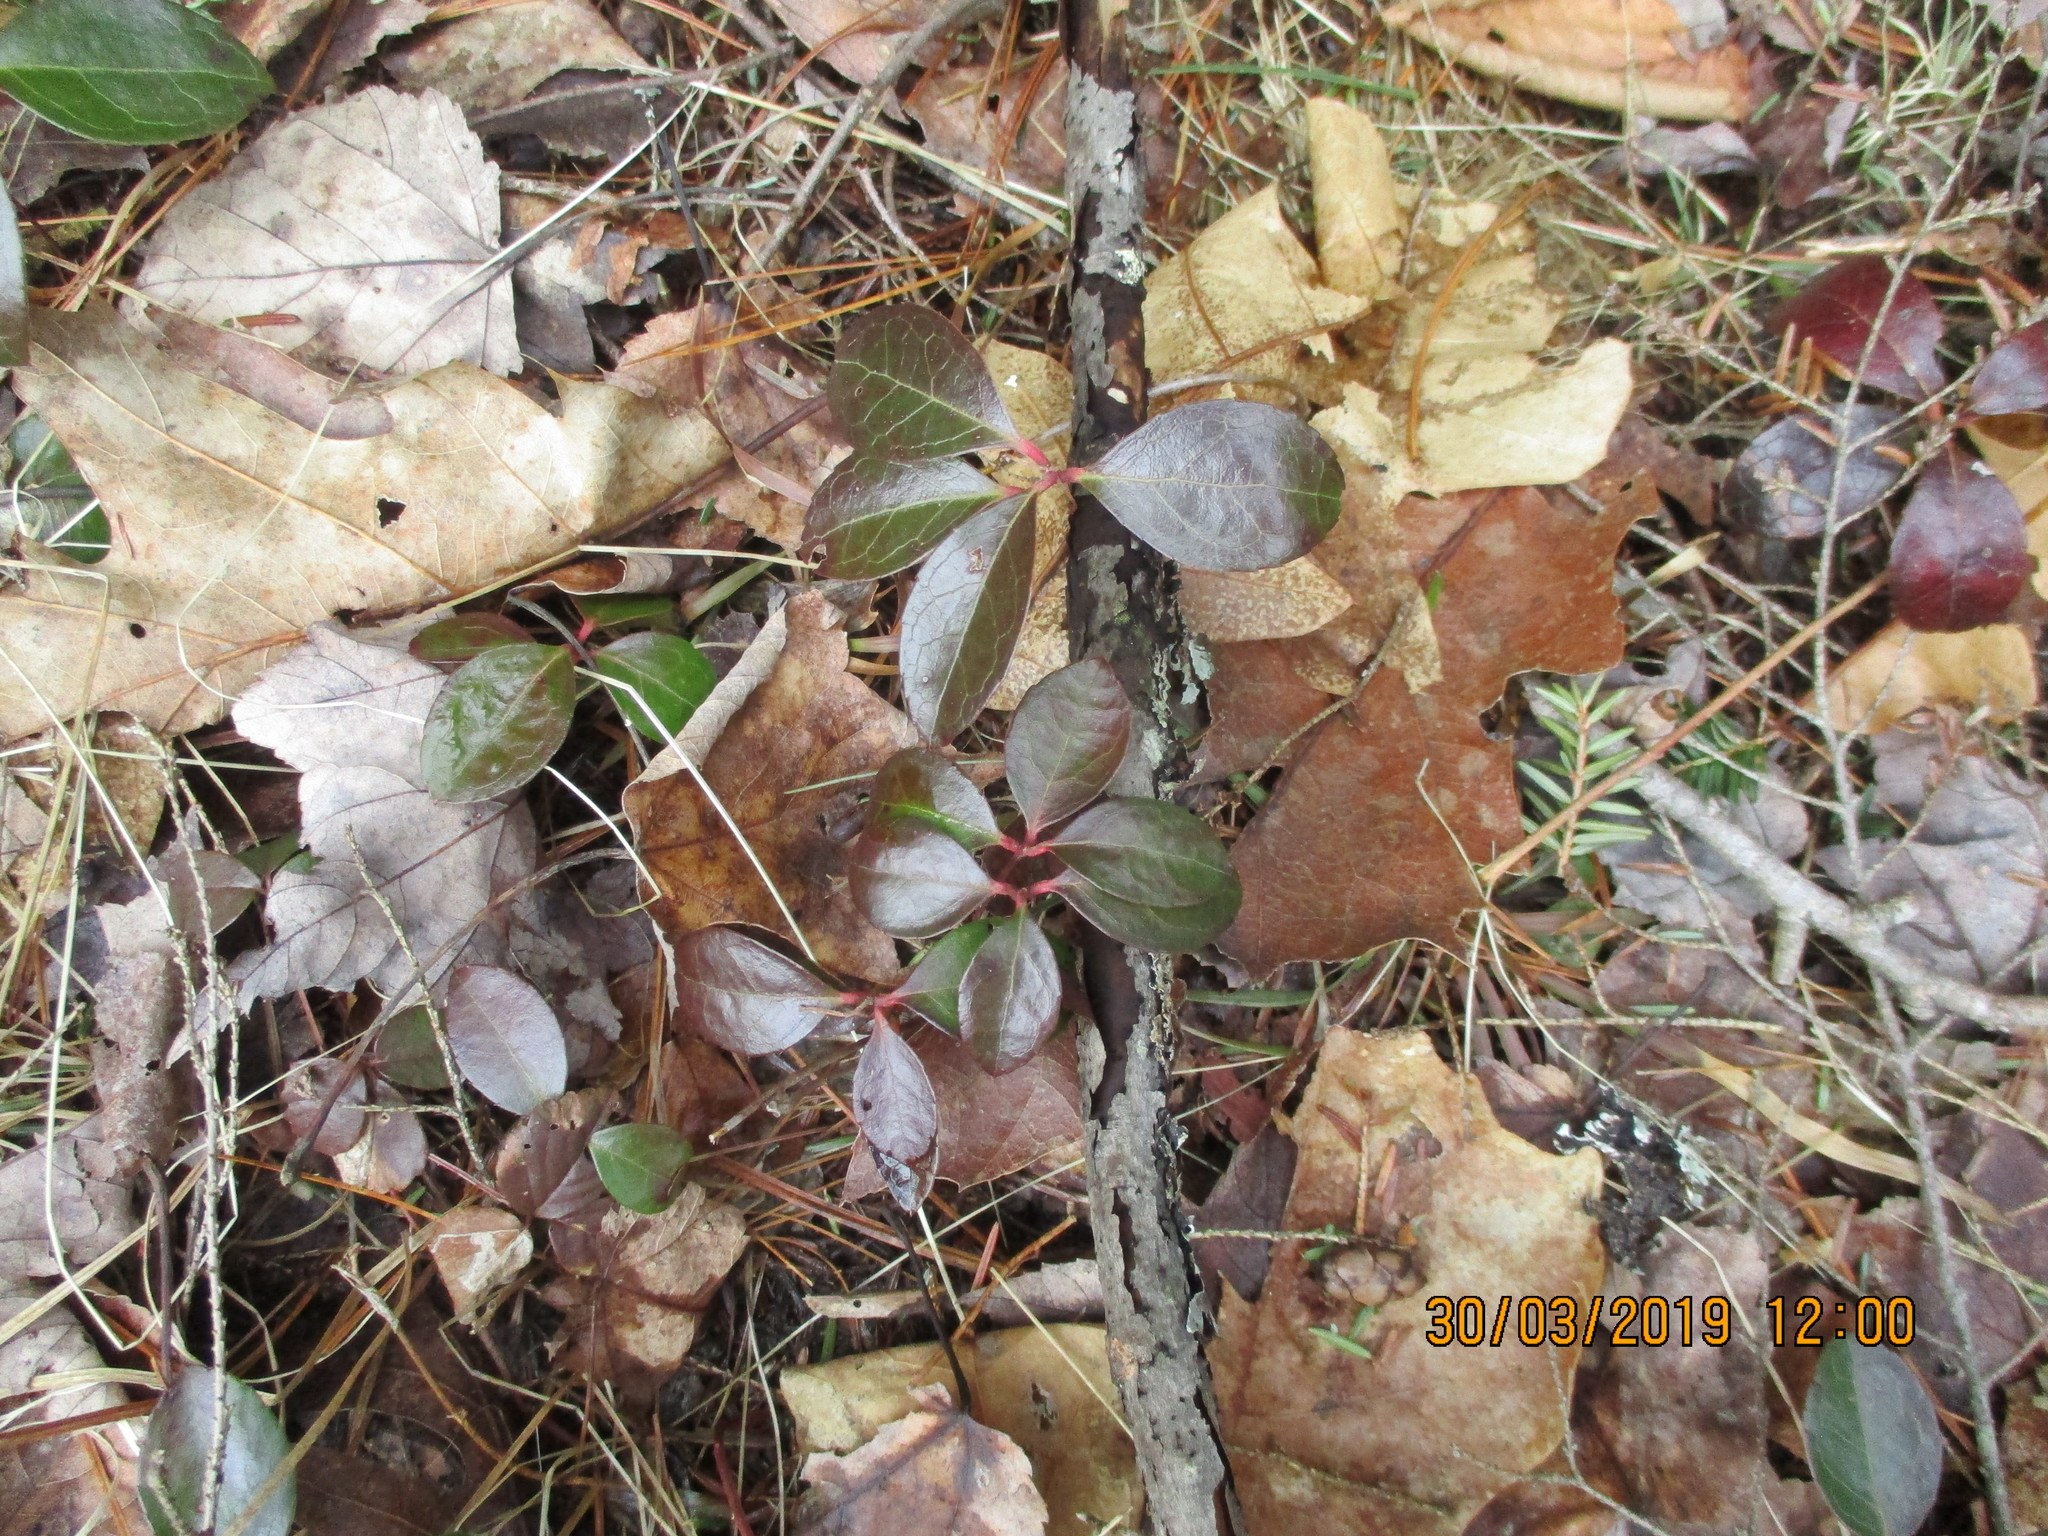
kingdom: Plantae
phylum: Tracheophyta
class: Magnoliopsida
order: Ericales
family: Ericaceae
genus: Gaultheria
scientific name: Gaultheria procumbens
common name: Checkerberry
